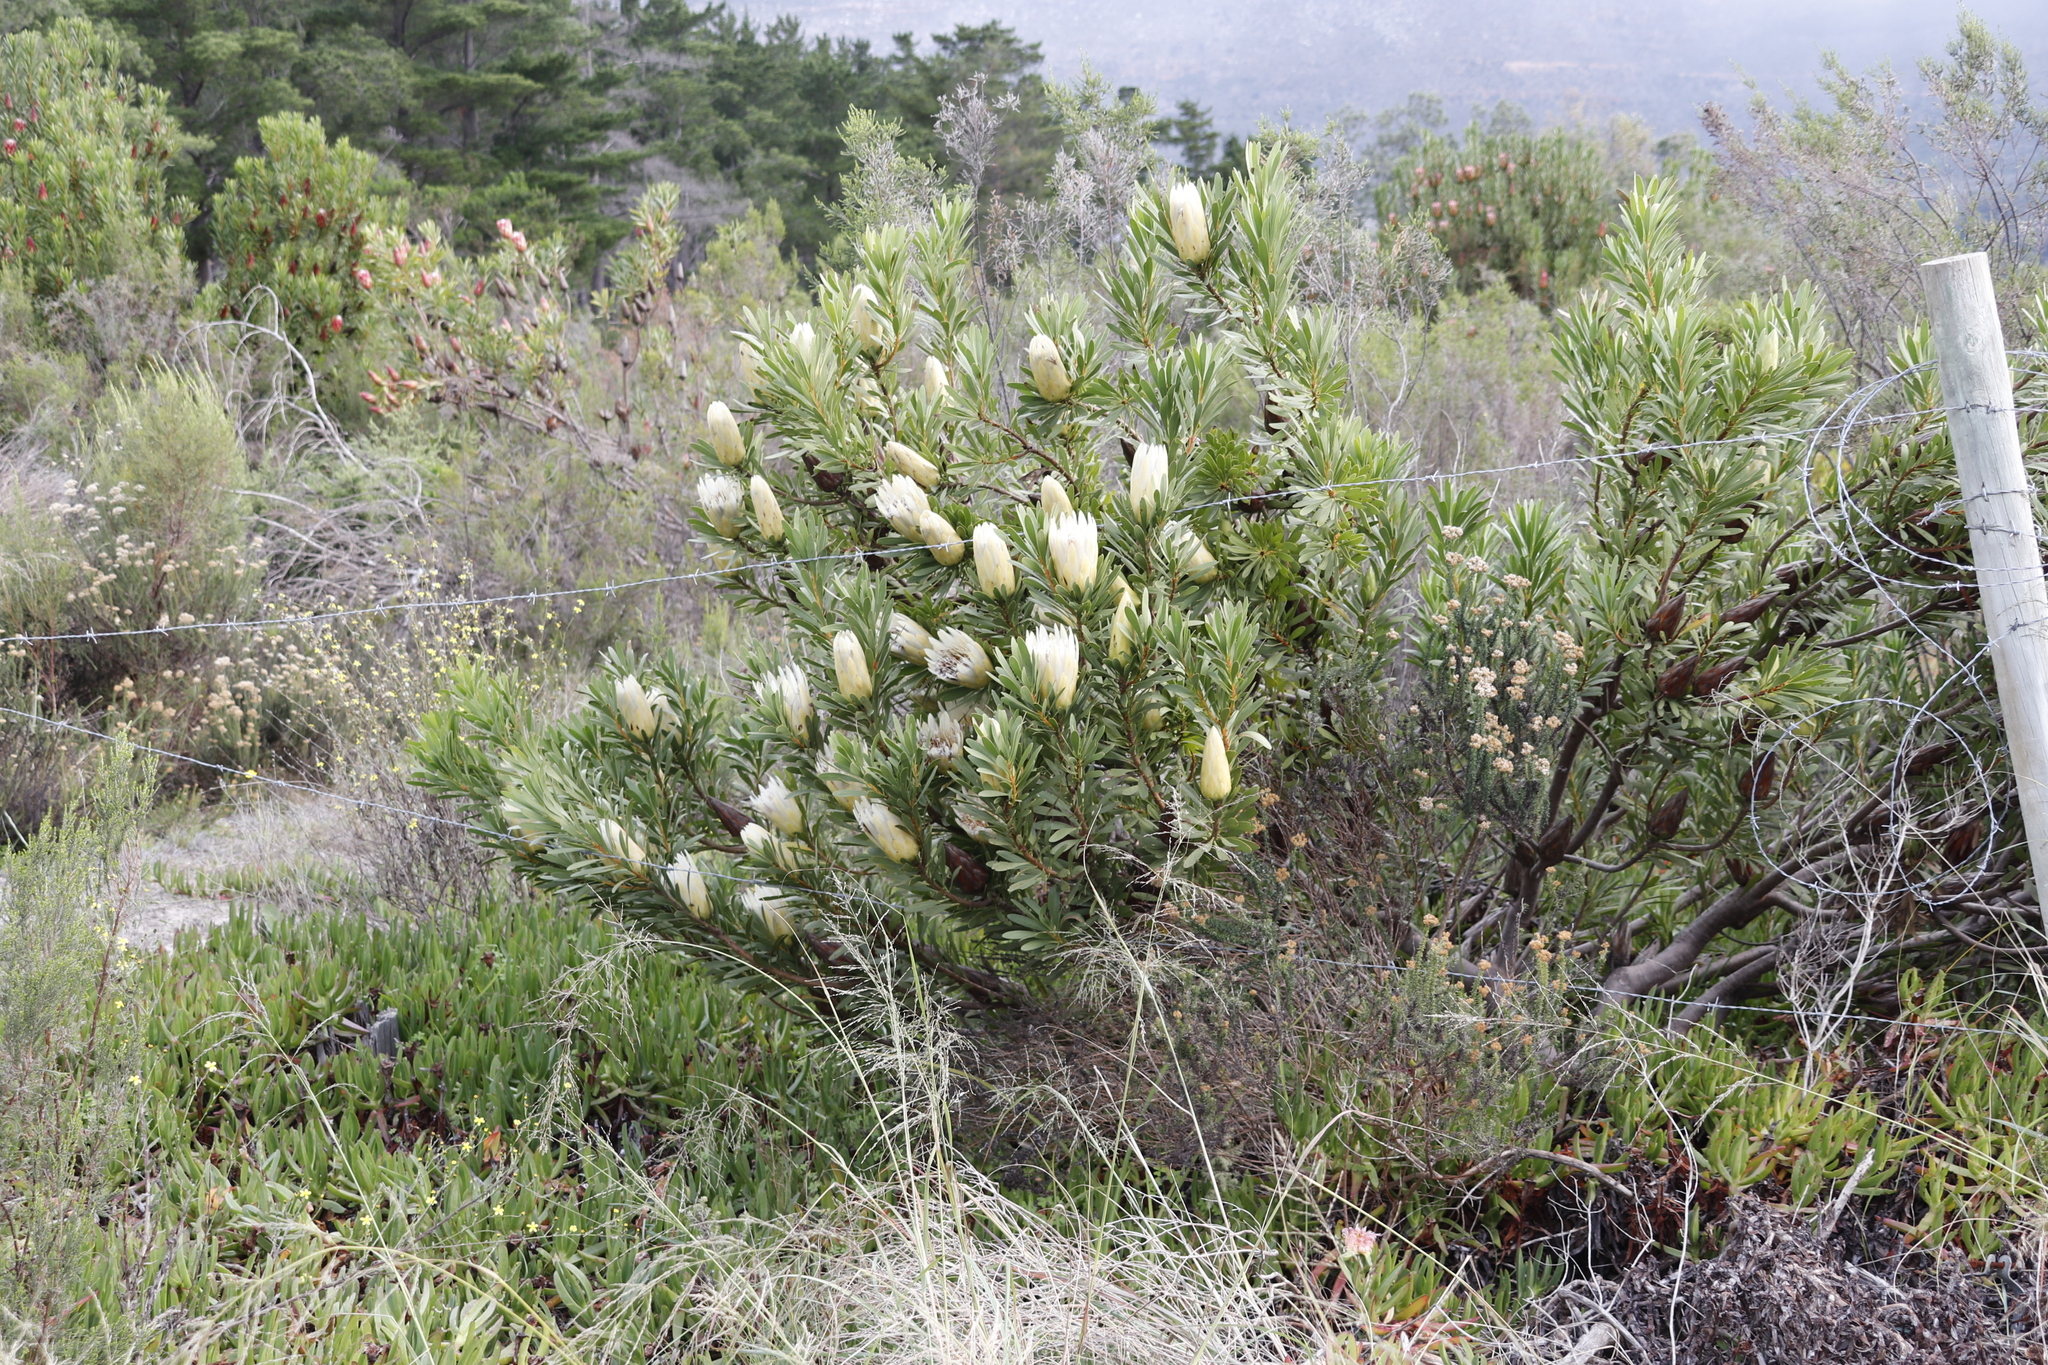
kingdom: Plantae
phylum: Tracheophyta
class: Magnoliopsida
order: Proteales
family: Proteaceae
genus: Protea
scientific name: Protea repens
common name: Sugarbush
